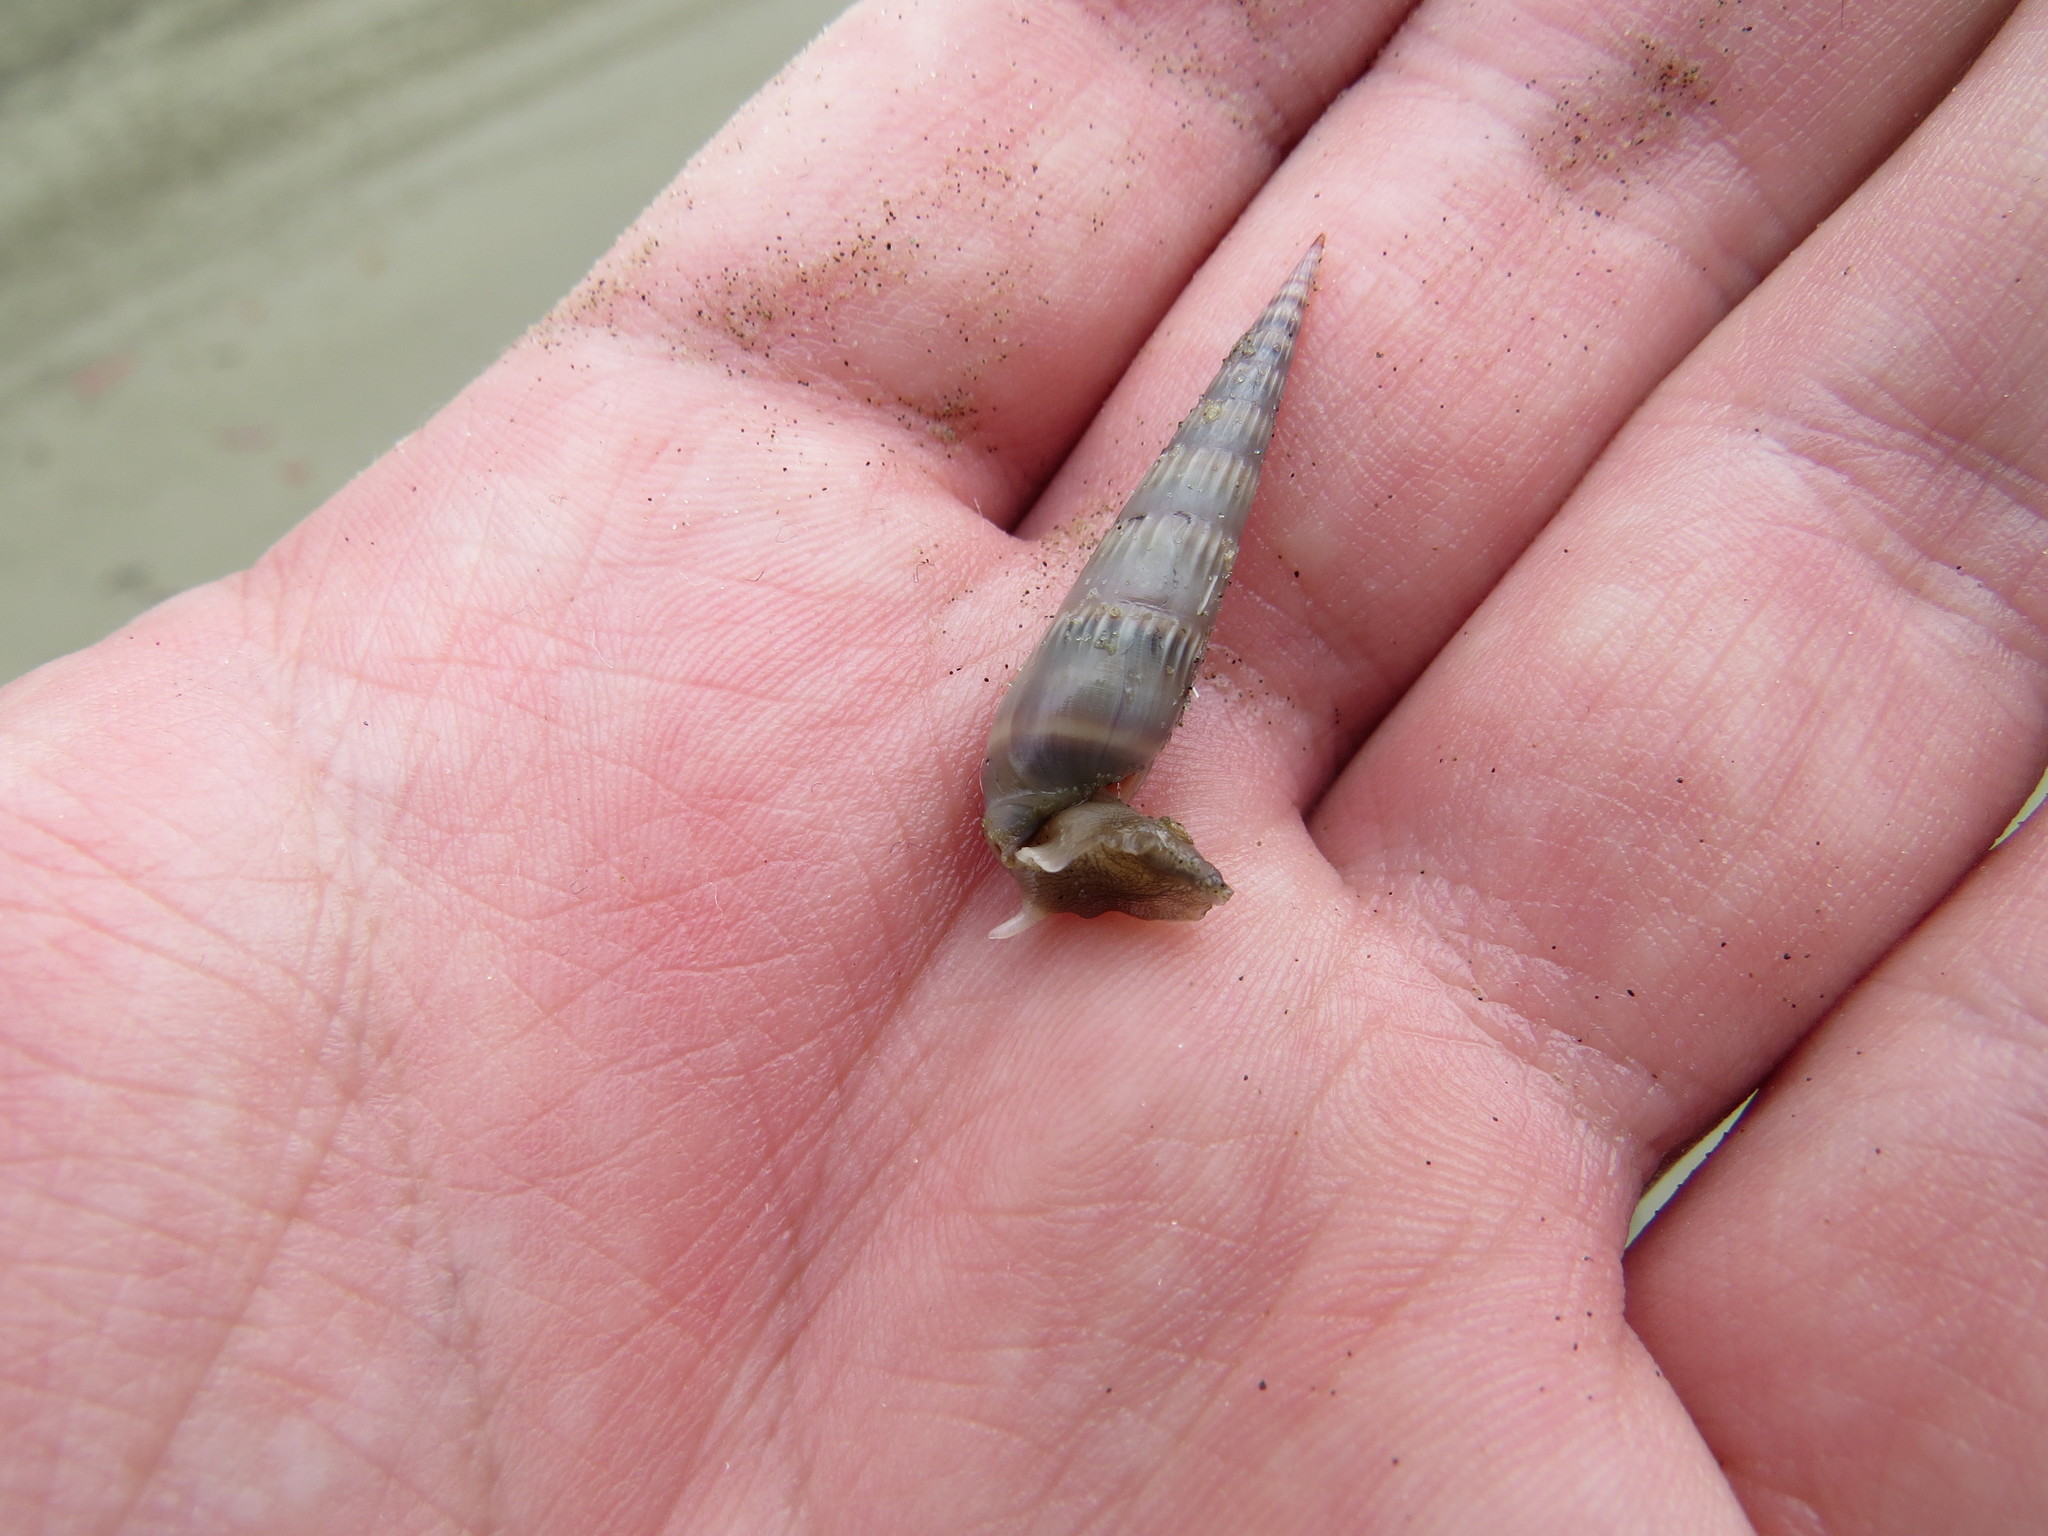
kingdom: Animalia
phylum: Mollusca
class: Gastropoda
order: Neogastropoda
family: Terebridae
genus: Hastula
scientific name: Hastula cinerea
